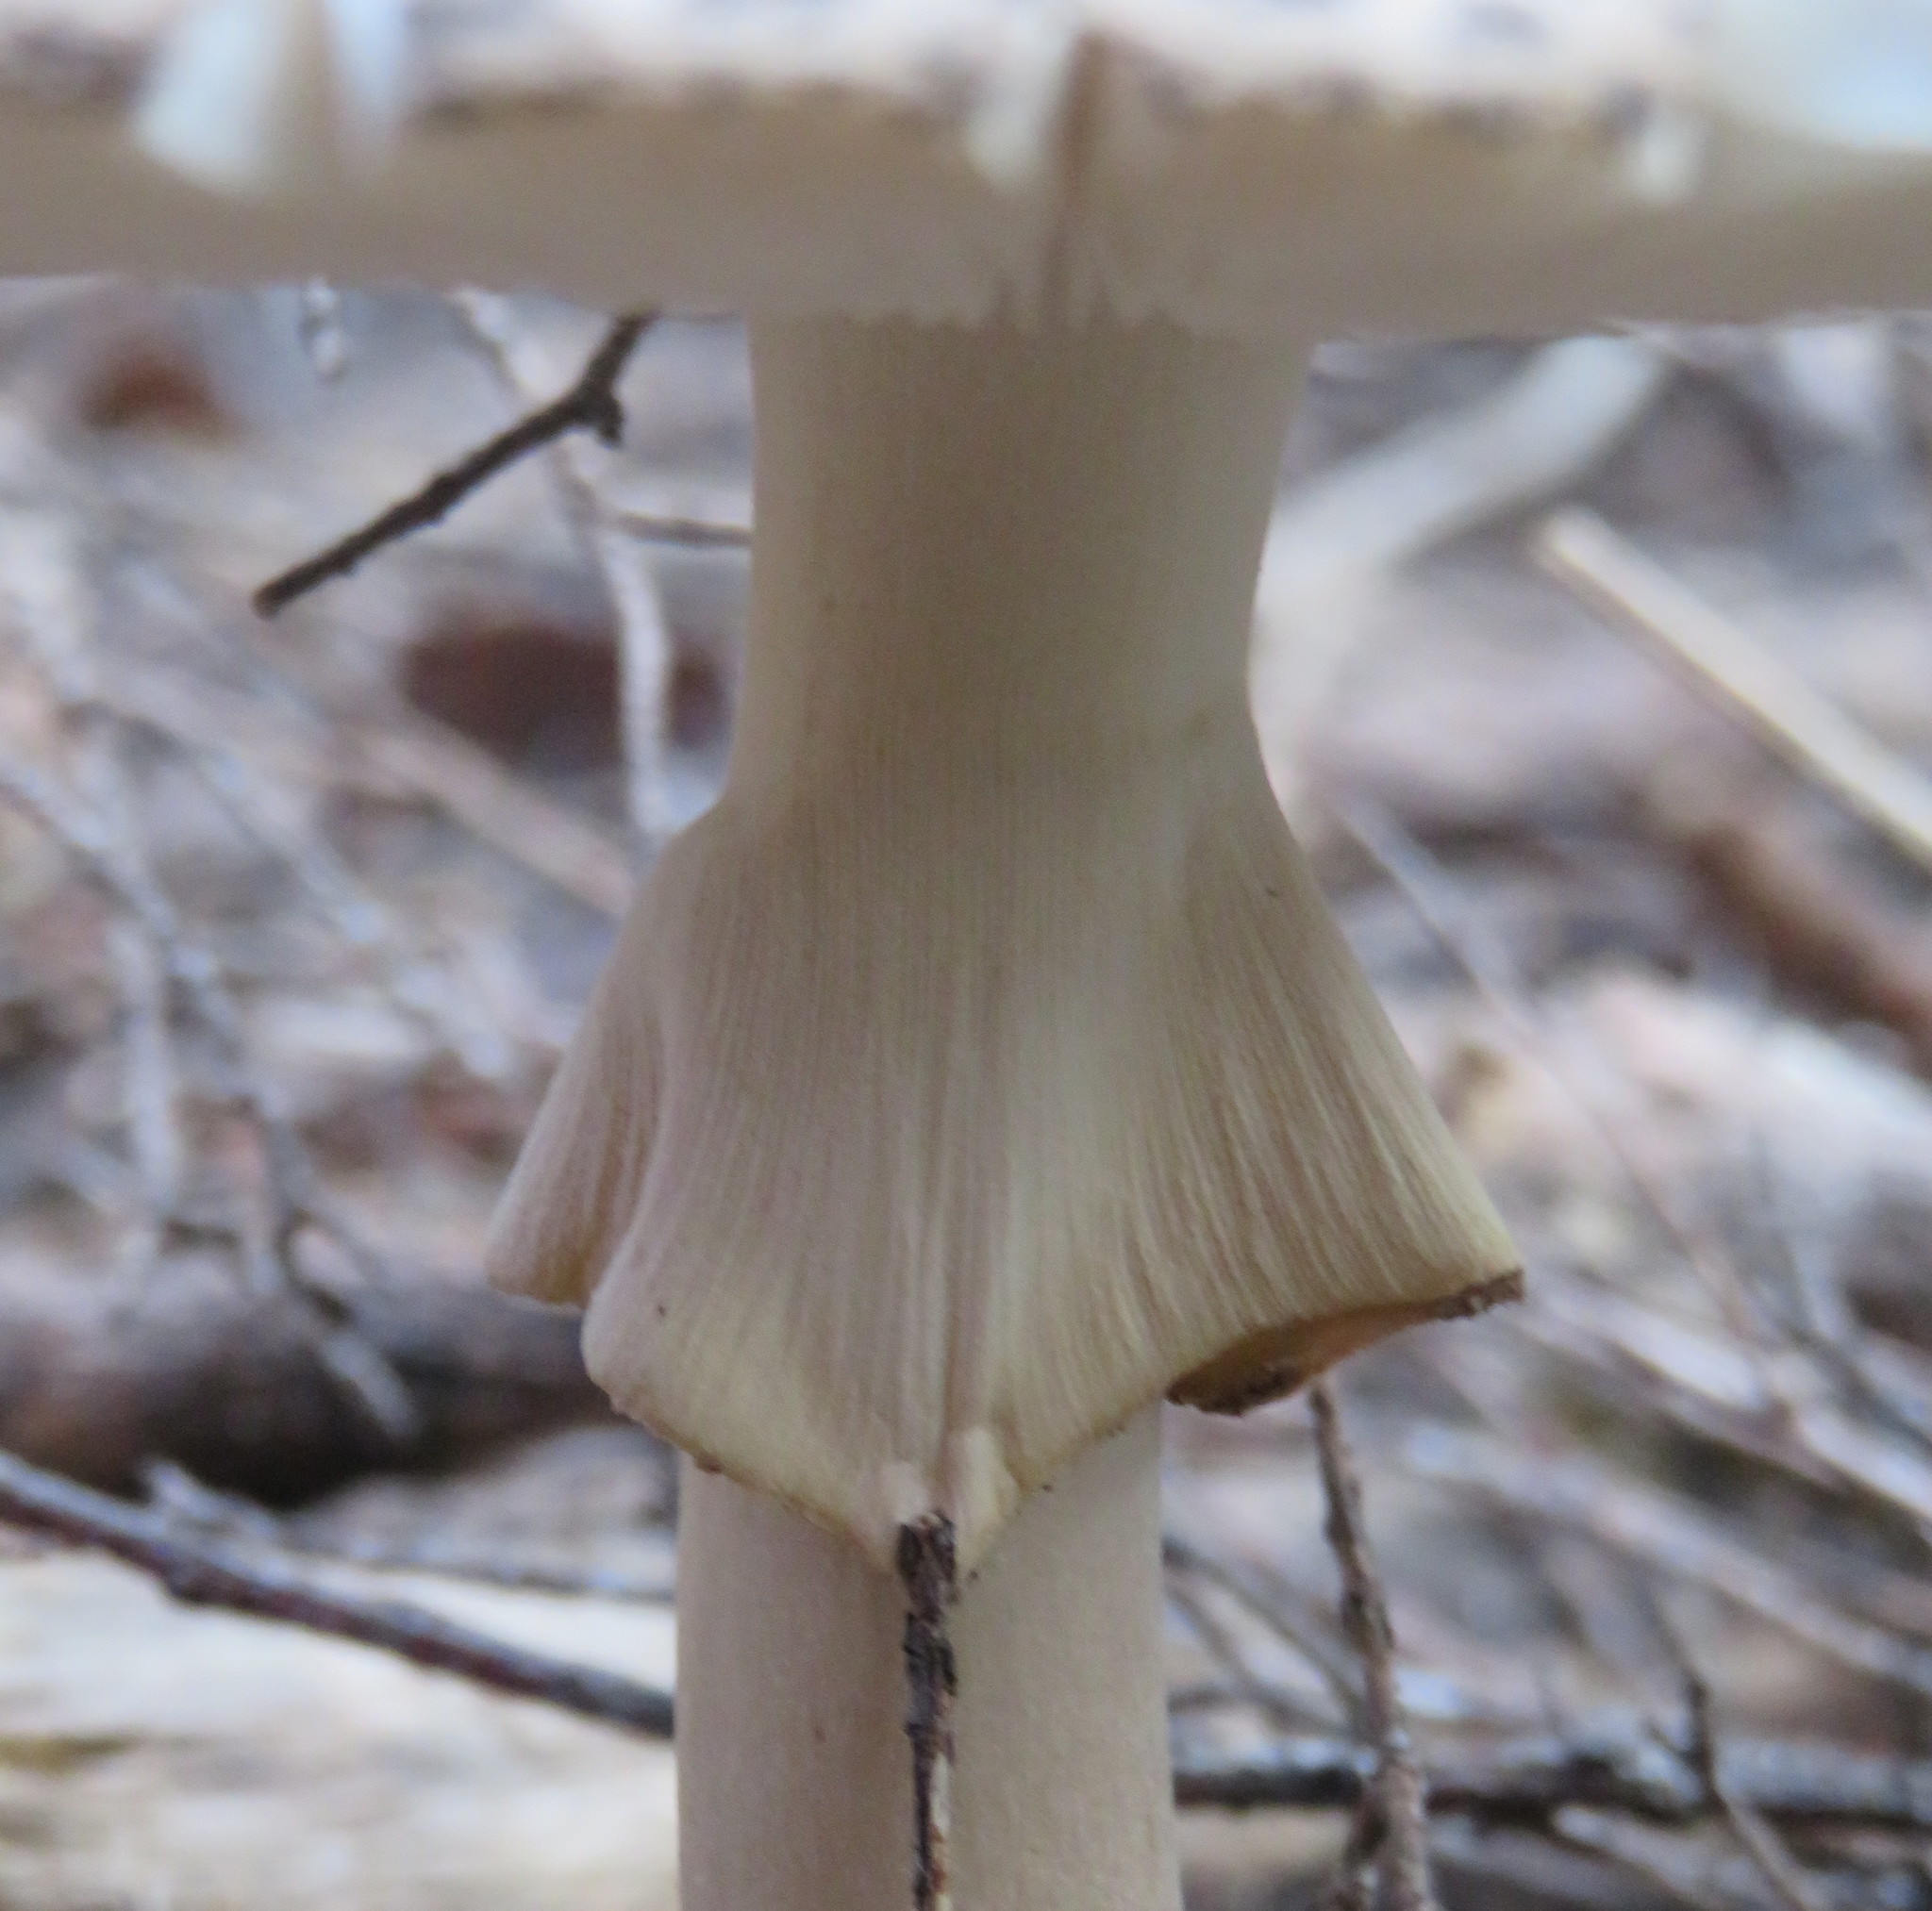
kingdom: Fungi
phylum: Basidiomycota
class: Agaricomycetes
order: Agaricales
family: Amanitaceae
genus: Amanita
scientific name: Amanita nothofagi
